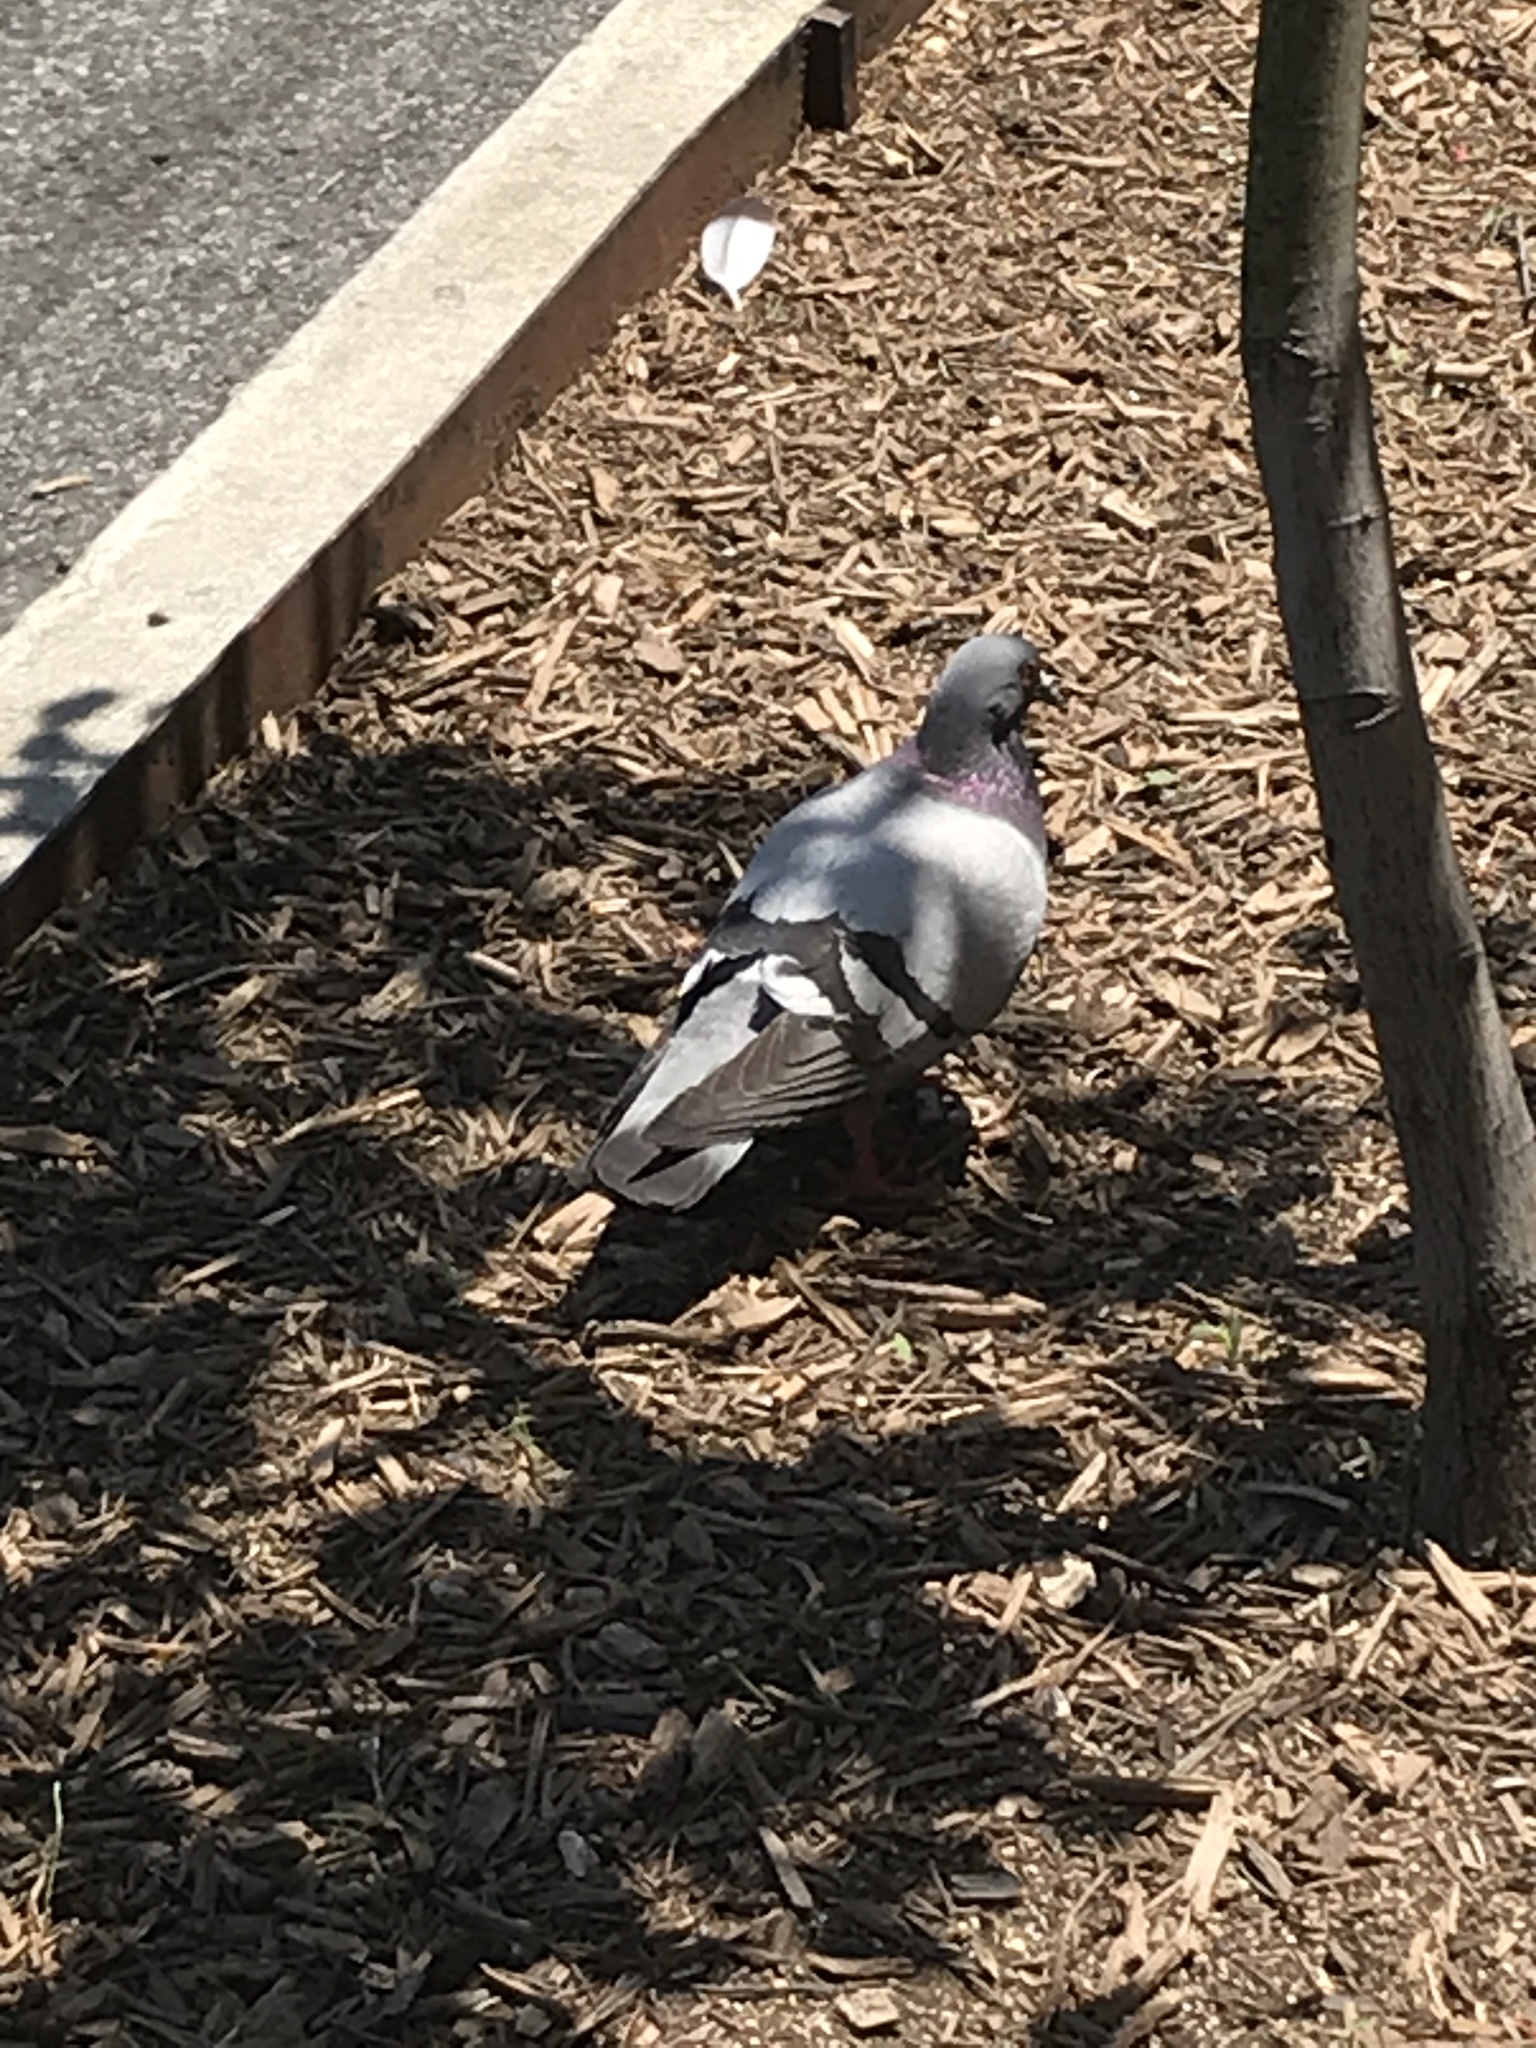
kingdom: Animalia
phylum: Chordata
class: Aves
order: Columbiformes
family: Columbidae
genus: Columba
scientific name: Columba livia
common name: Rock pigeon
